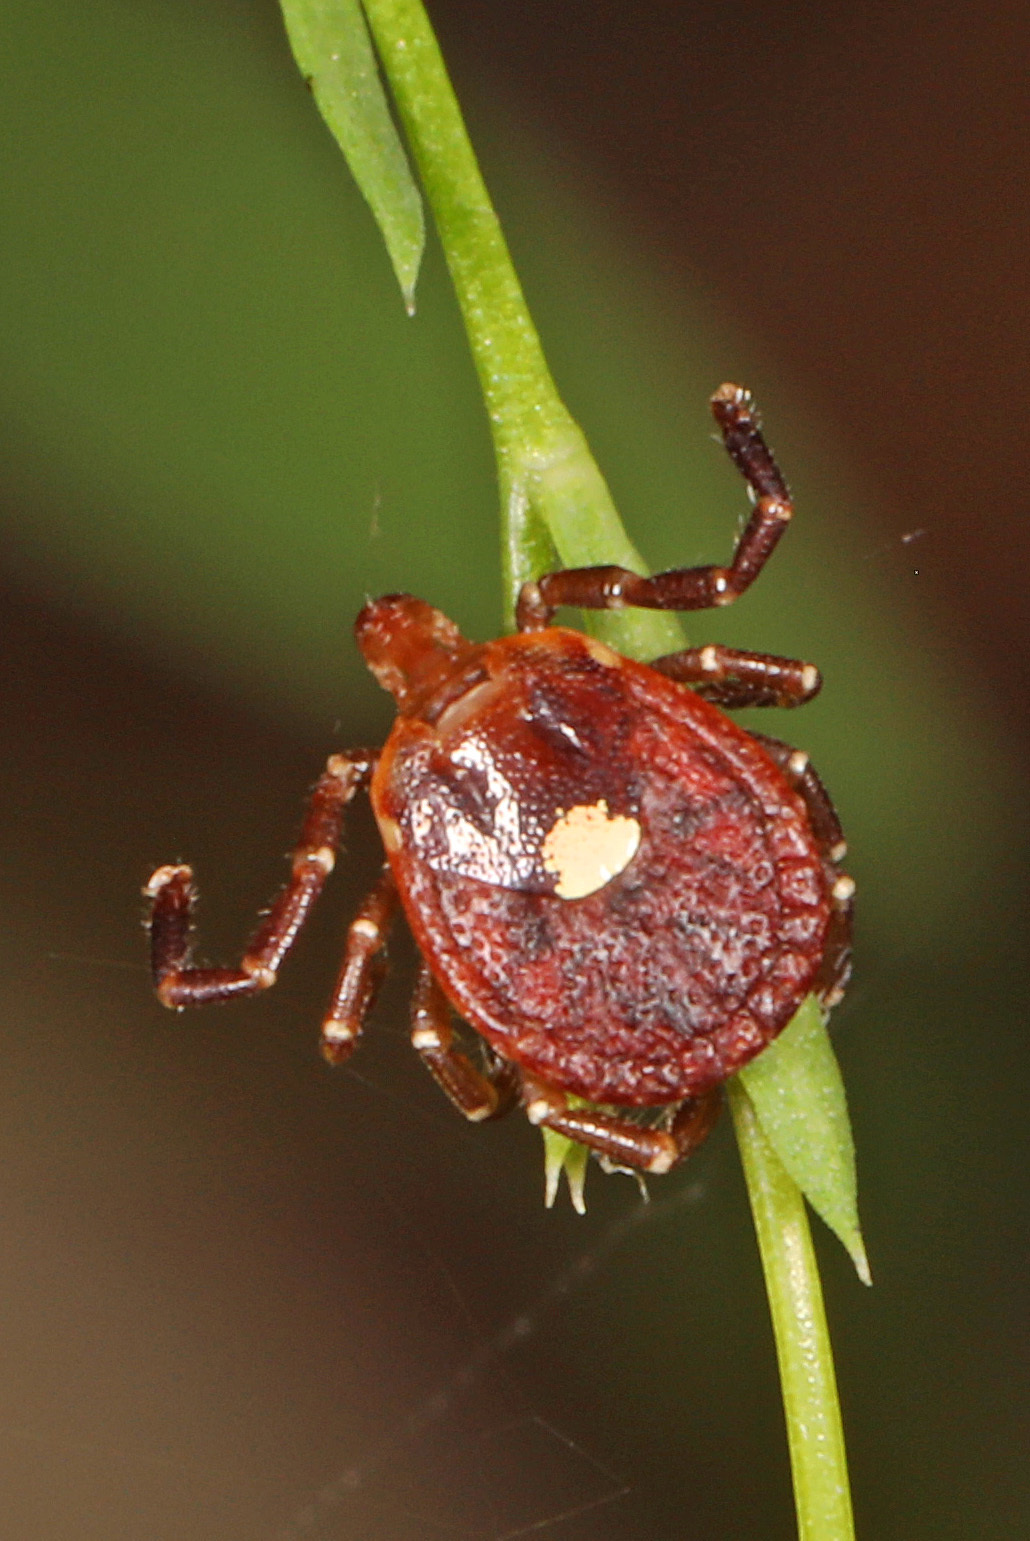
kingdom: Animalia
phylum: Arthropoda
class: Arachnida
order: Ixodida
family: Ixodidae
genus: Amblyomma
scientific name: Amblyomma americanum
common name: Lone star tick
